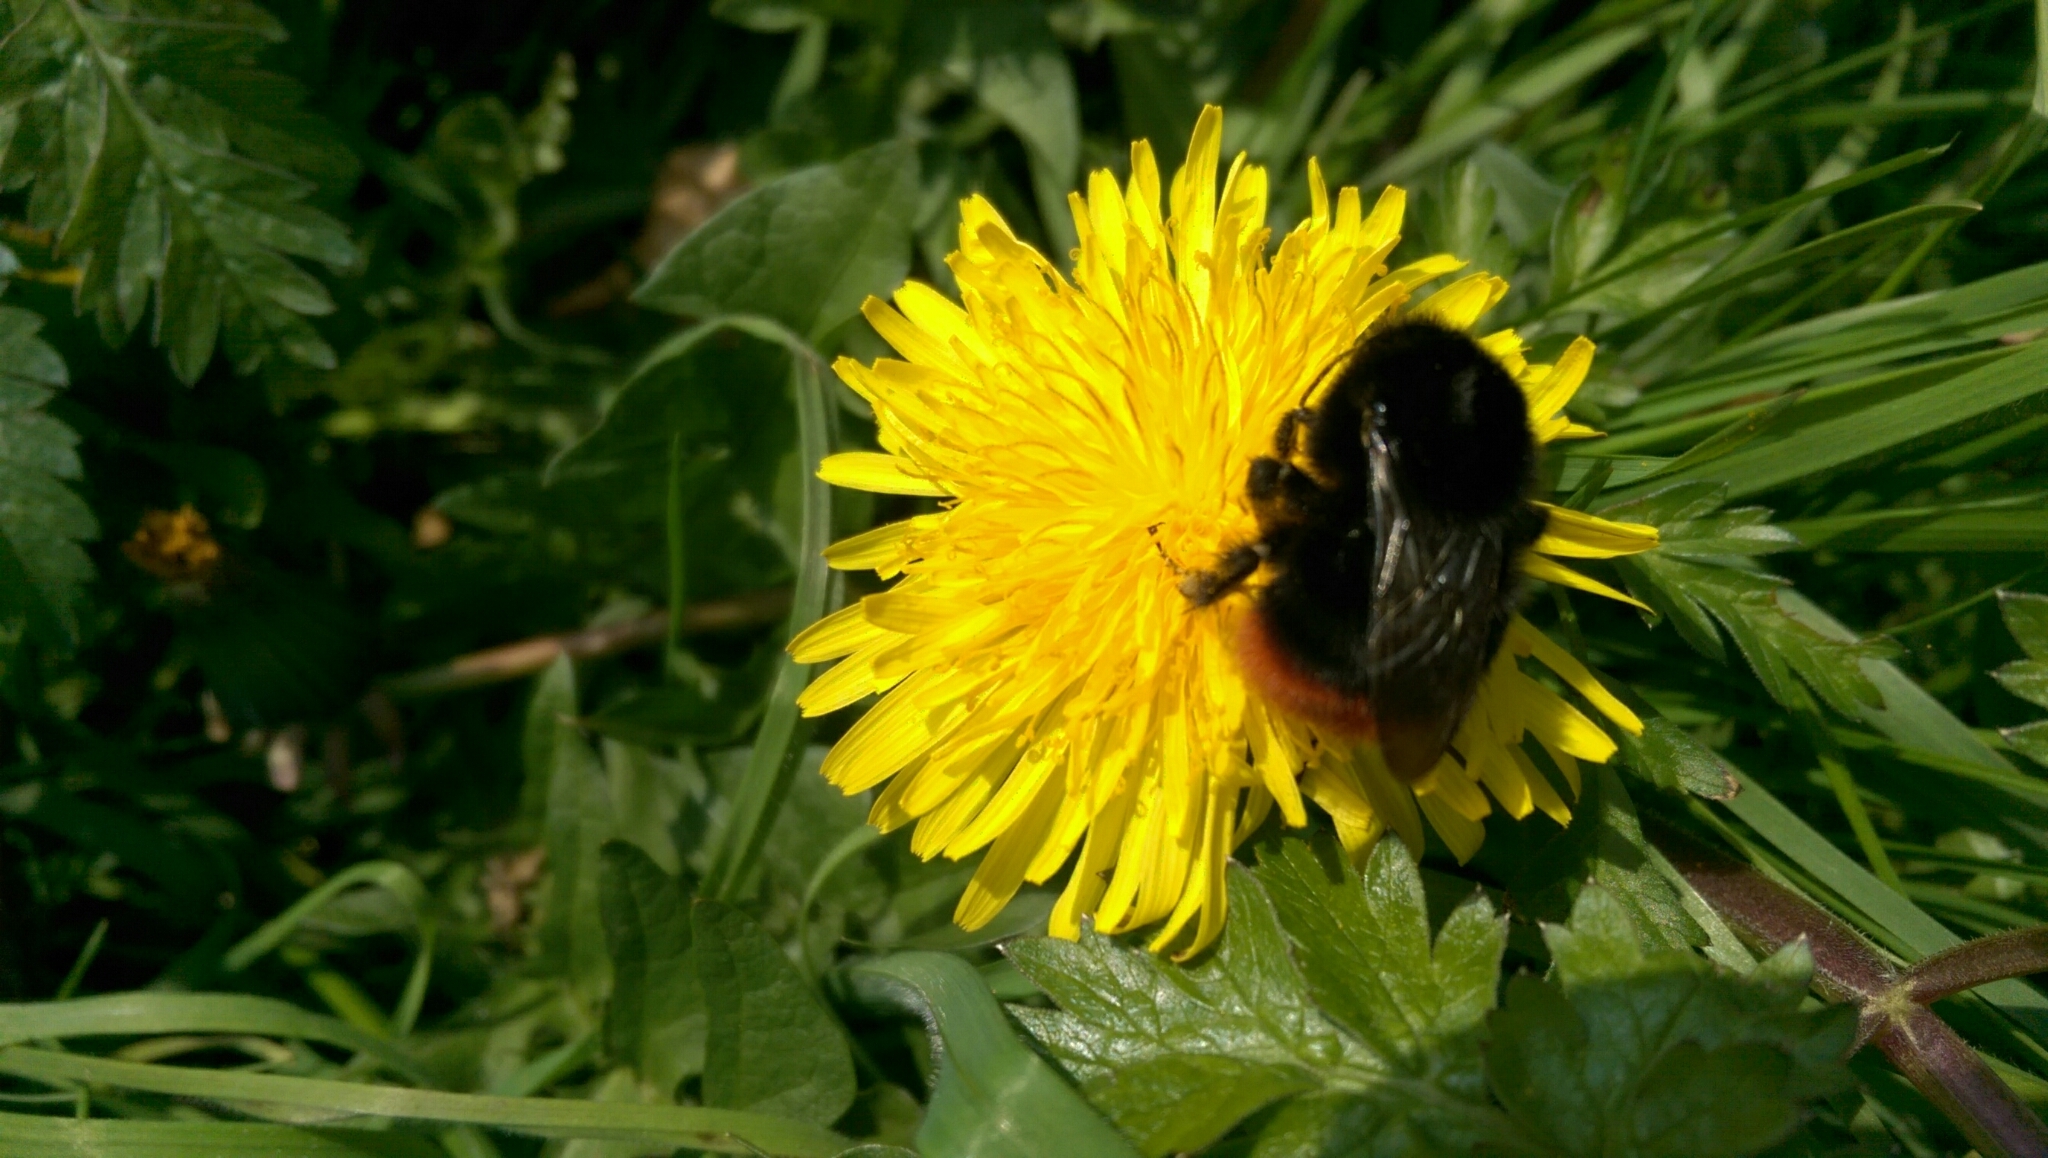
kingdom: Animalia
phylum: Arthropoda
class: Insecta
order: Hymenoptera
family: Apidae
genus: Bombus
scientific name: Bombus lapidarius
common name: Large red-tailed humble-bee
